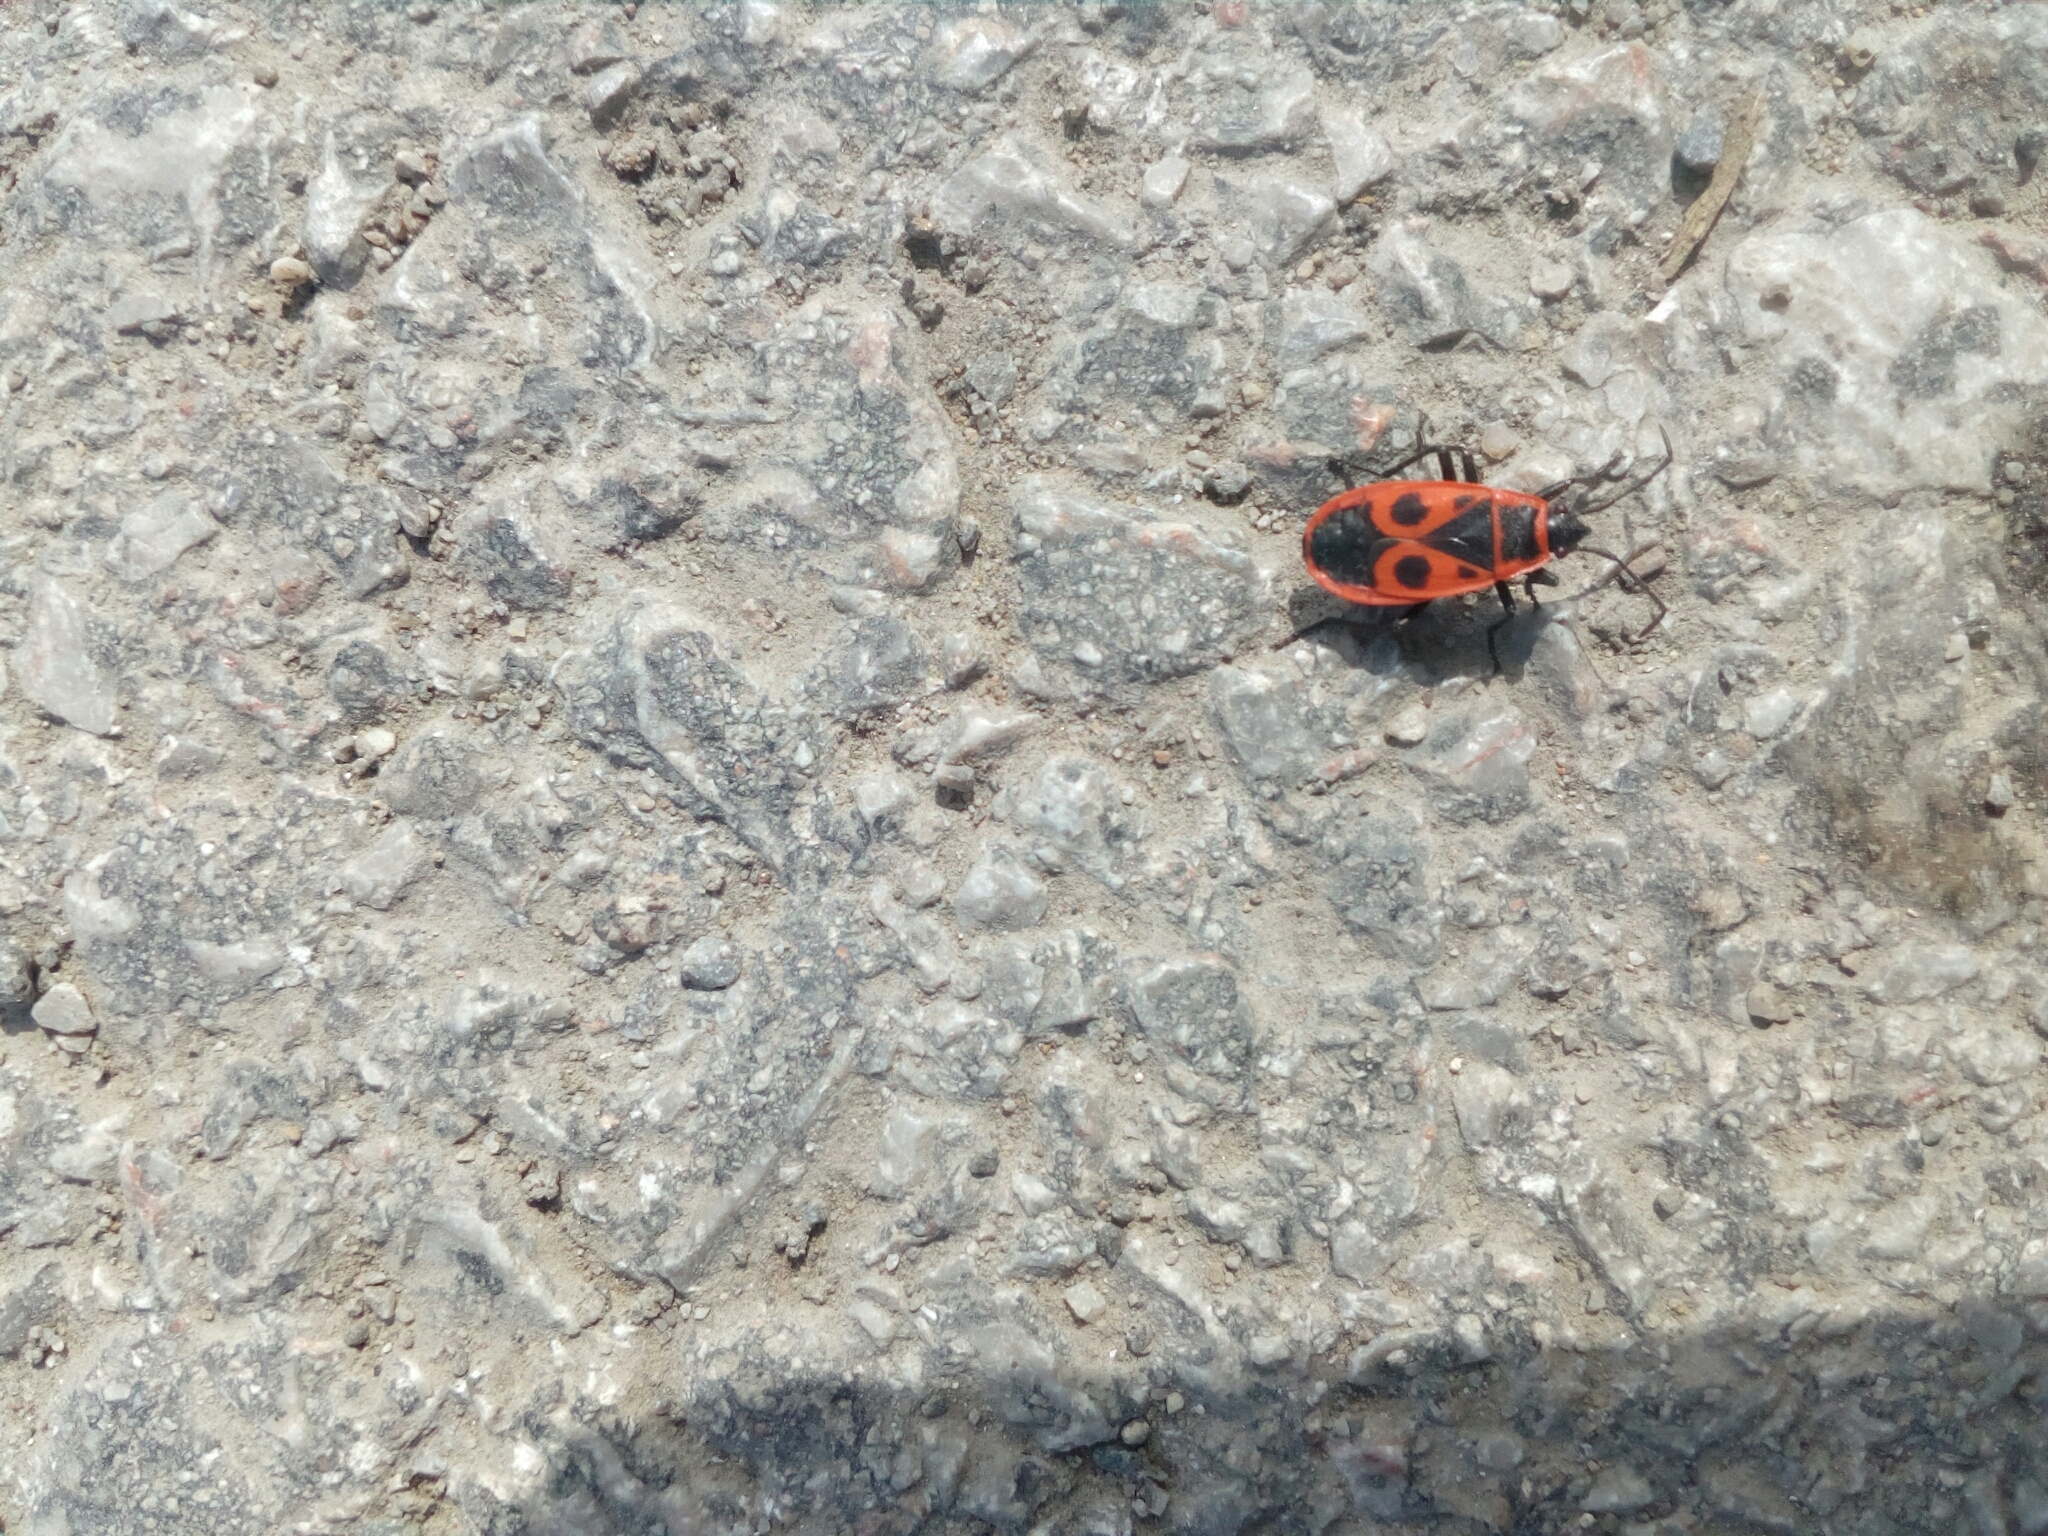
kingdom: Animalia
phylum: Arthropoda
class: Insecta
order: Hemiptera
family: Pyrrhocoridae
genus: Pyrrhocoris
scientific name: Pyrrhocoris apterus
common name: Firebug
